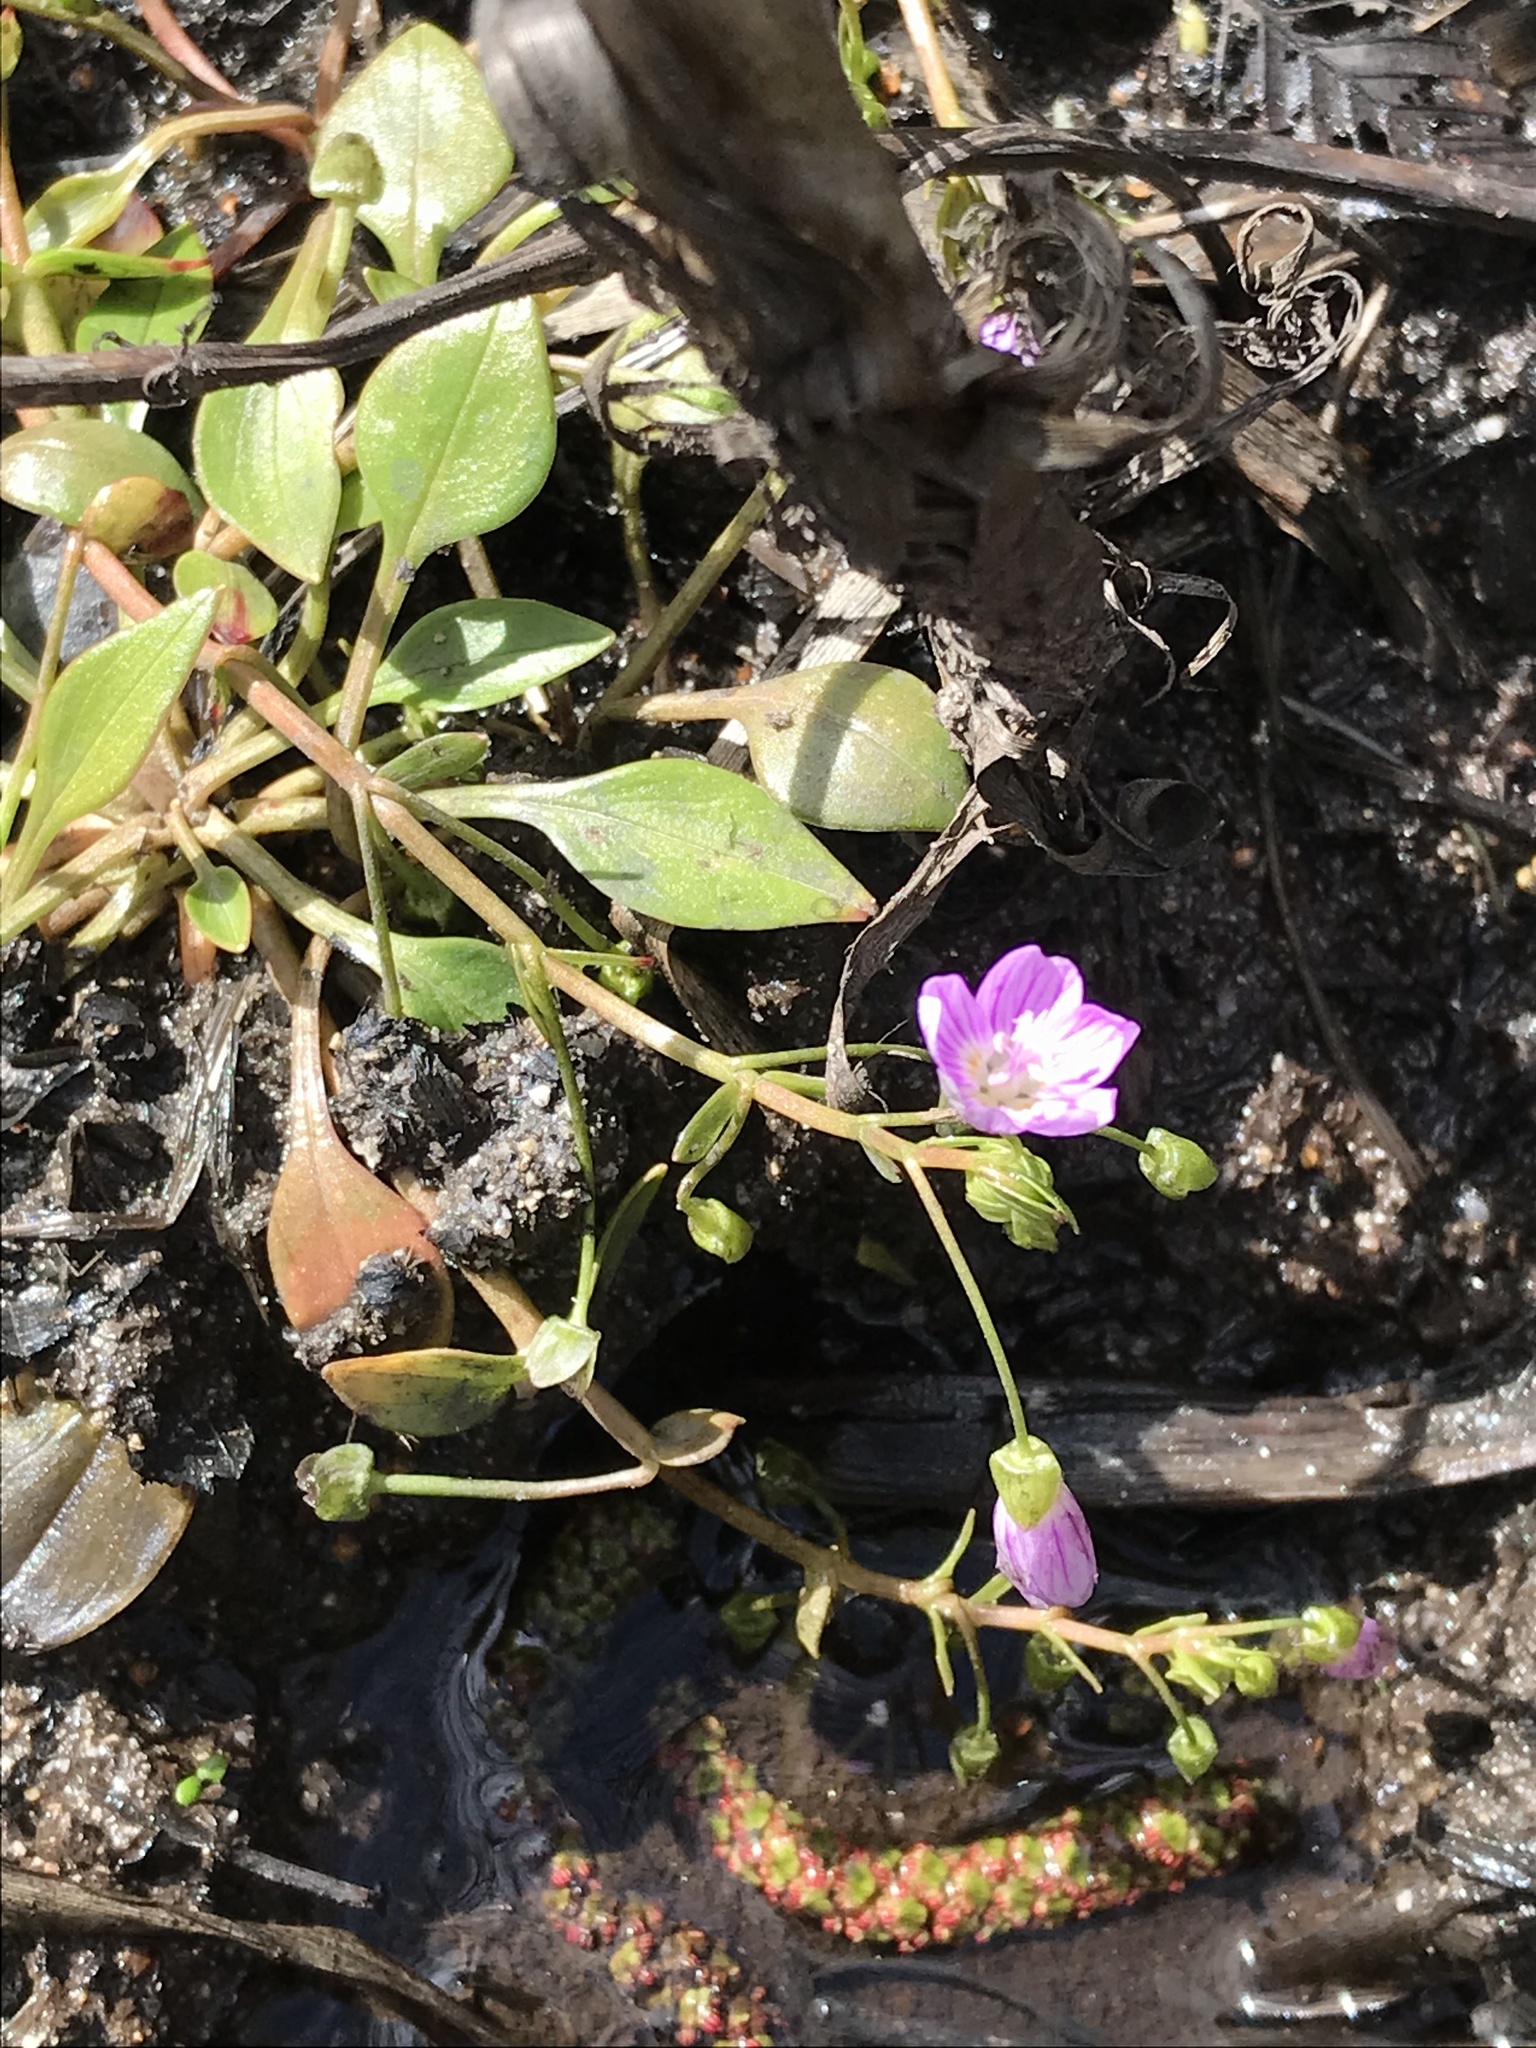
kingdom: Plantae
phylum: Tracheophyta
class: Magnoliopsida
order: Caryophyllales
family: Montiaceae
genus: Claytonia
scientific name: Claytonia sibirica
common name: Pink purslane
